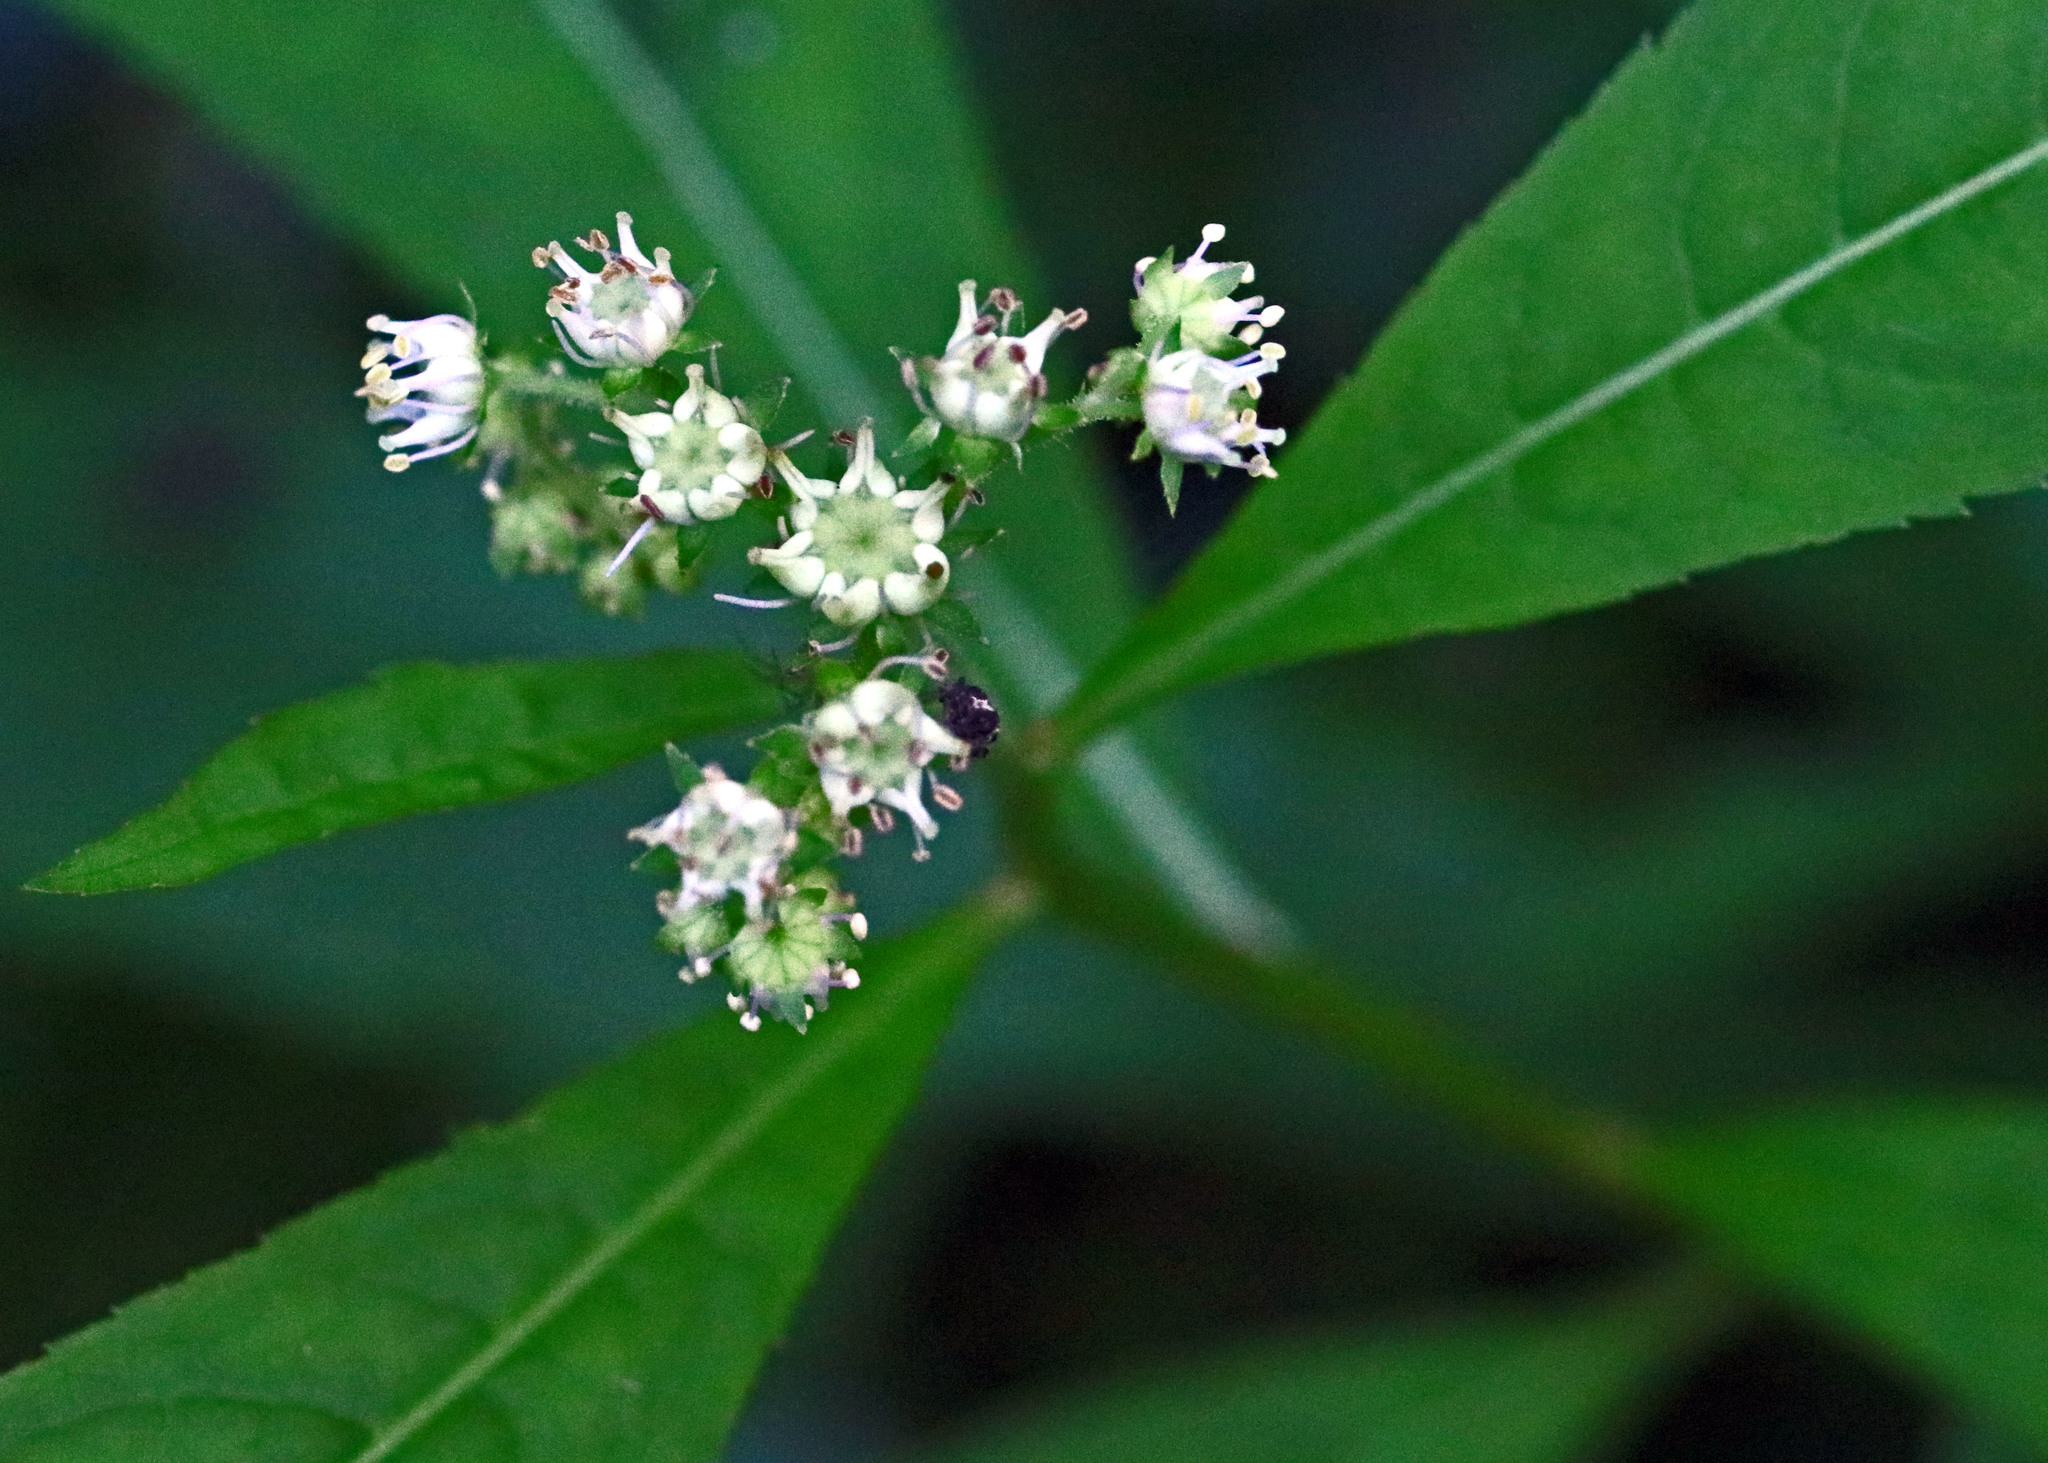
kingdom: Plantae
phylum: Tracheophyta
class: Magnoliopsida
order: Saxifragales
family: Penthoraceae
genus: Penthorum
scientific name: Penthorum sedoides
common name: Ditch stonecrop
